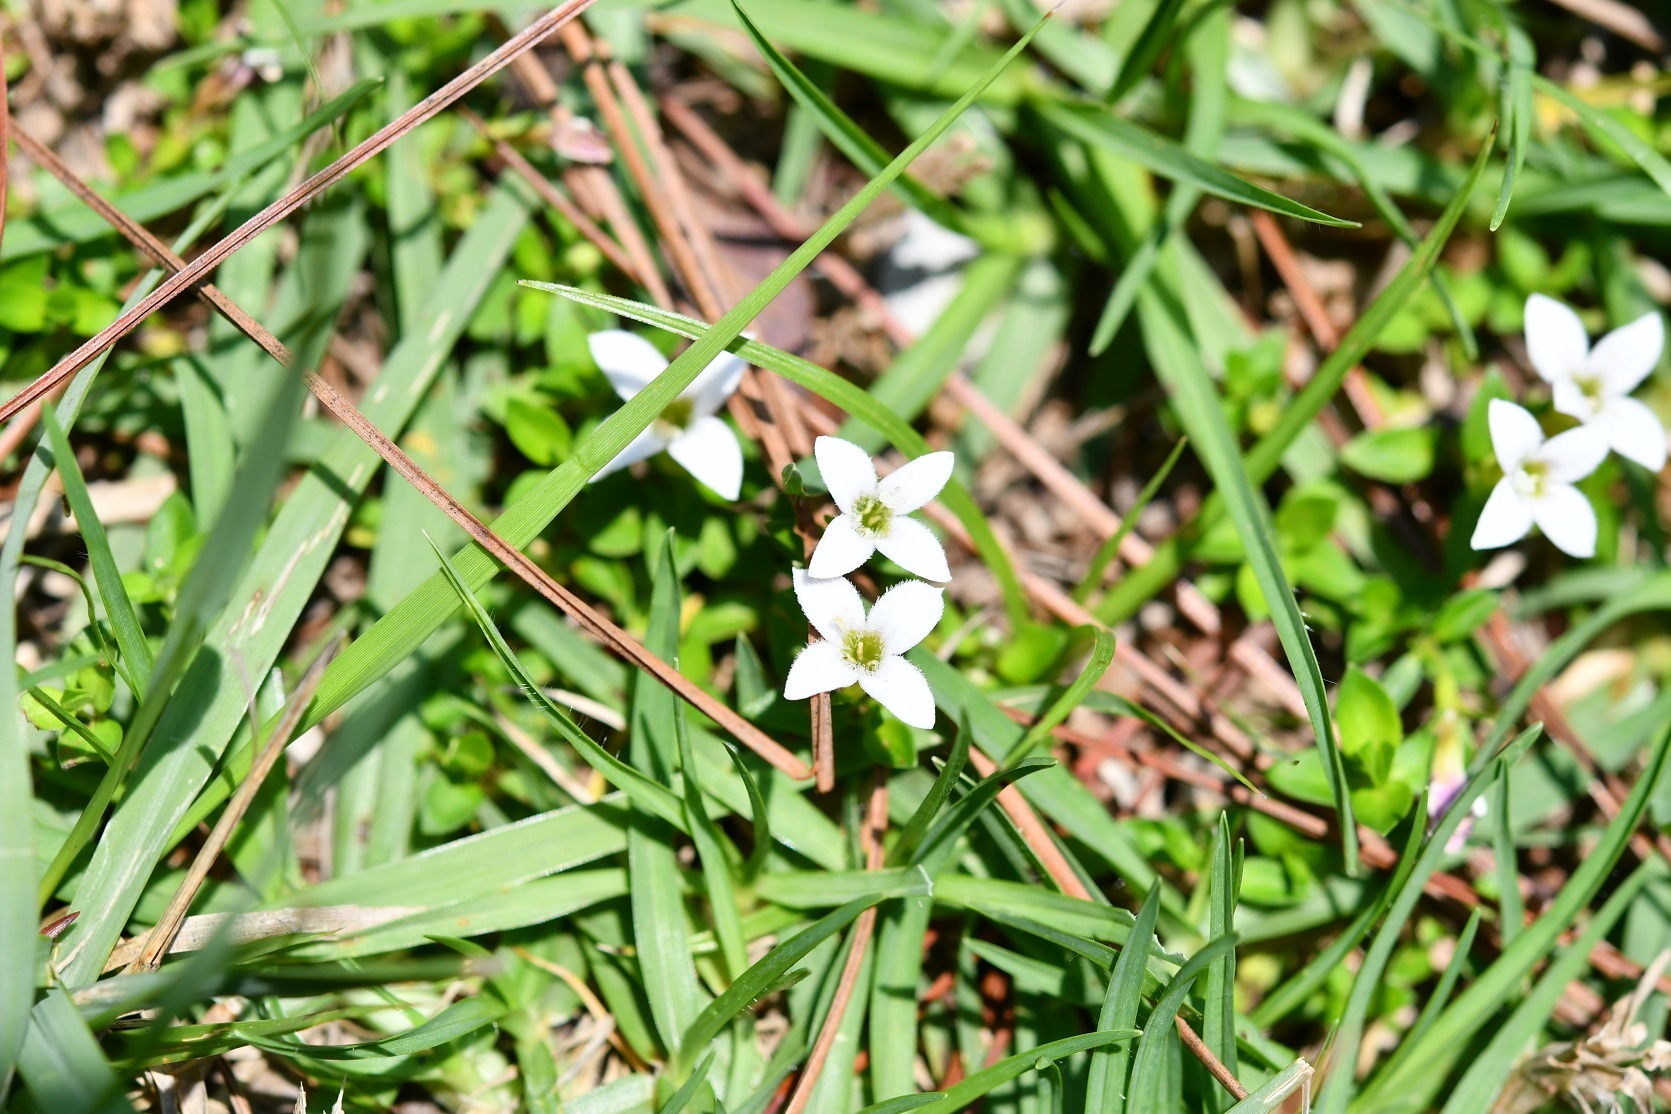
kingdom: Plantae
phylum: Tracheophyta
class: Magnoliopsida
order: Gentianales
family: Rubiaceae
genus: Arcytophyllum
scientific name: Arcytophyllum serpyllaceum
